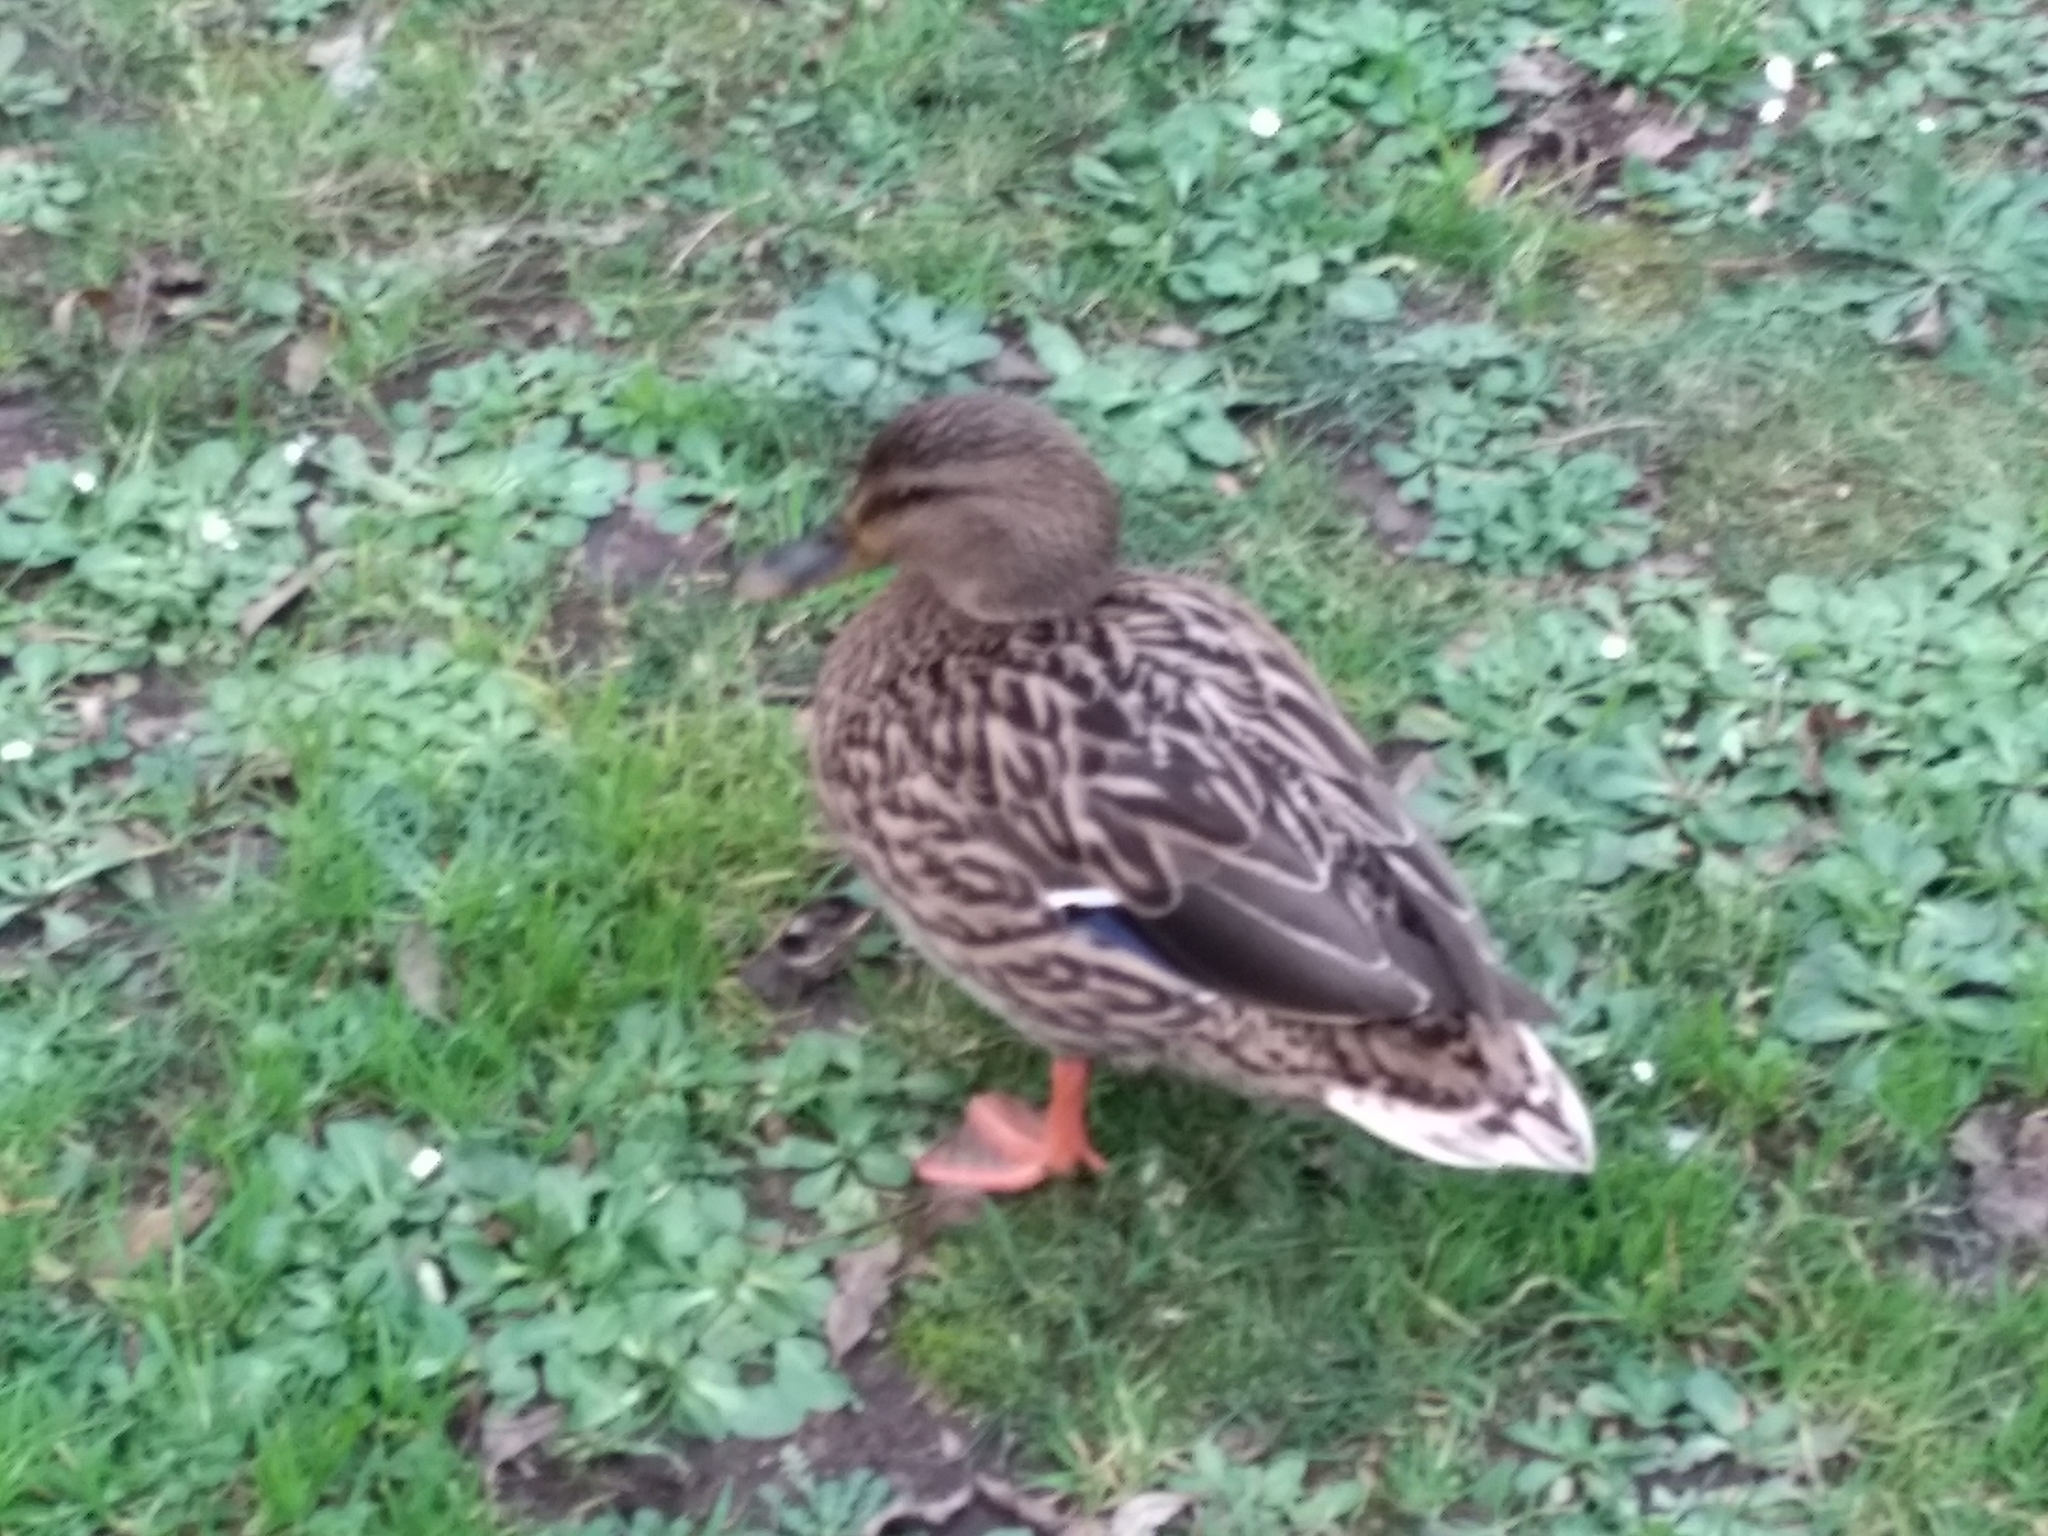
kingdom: Animalia
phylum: Chordata
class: Aves
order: Anseriformes
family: Anatidae
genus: Anas
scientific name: Anas platyrhynchos
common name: Mallard
